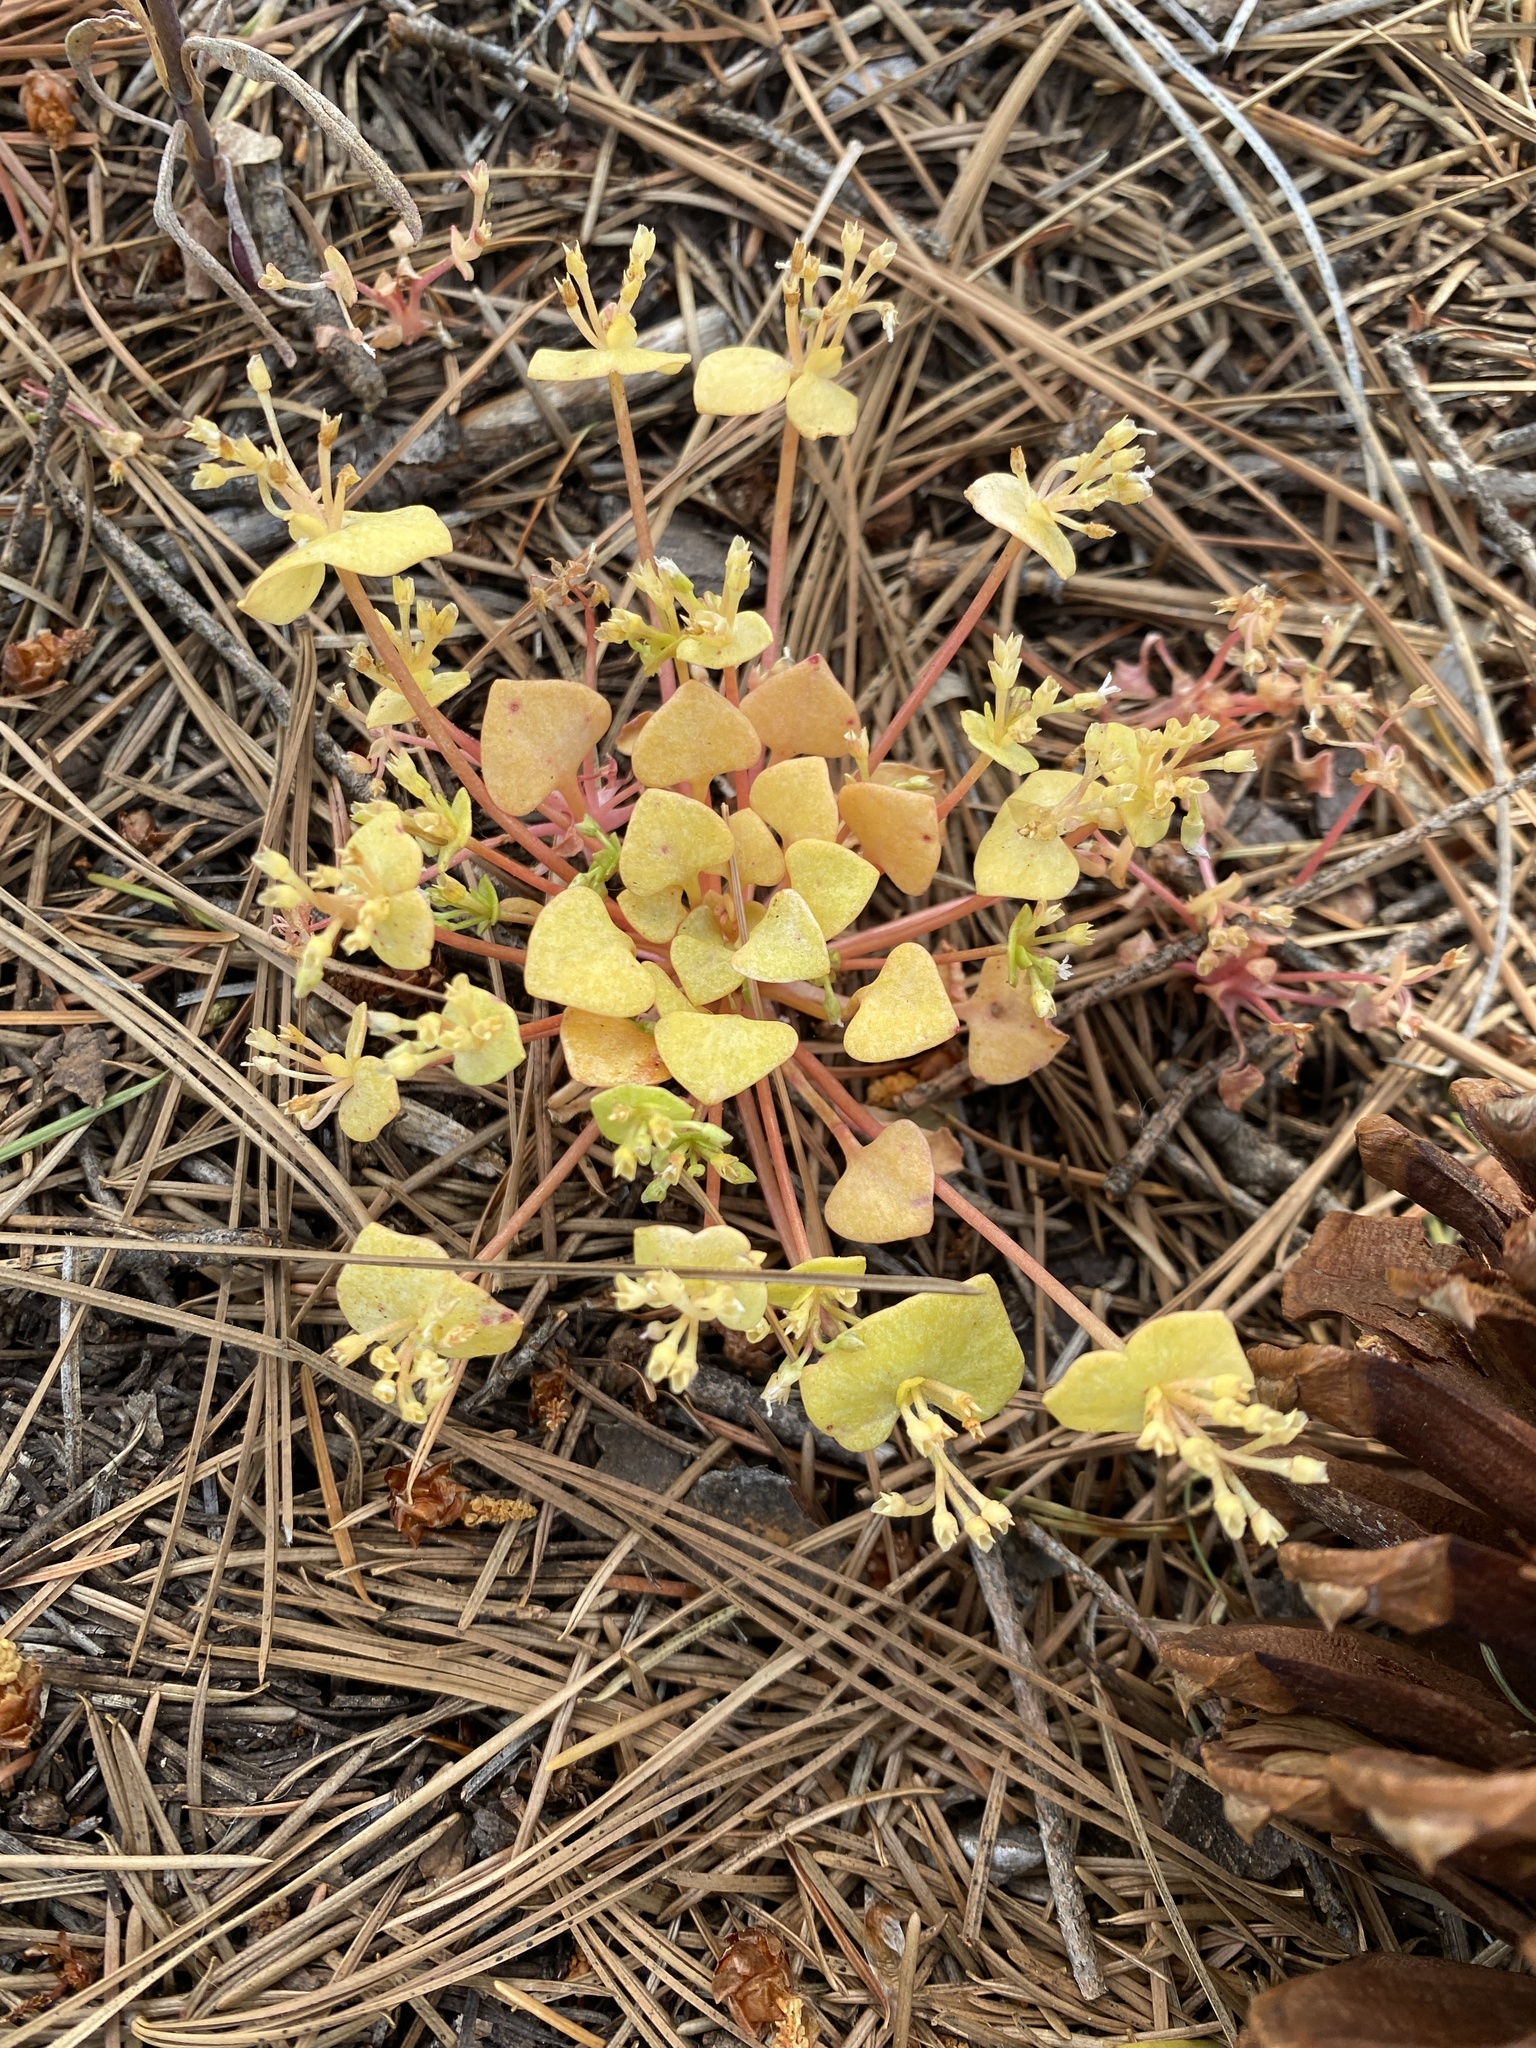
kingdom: Plantae
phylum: Tracheophyta
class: Magnoliopsida
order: Caryophyllales
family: Montiaceae
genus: Claytonia
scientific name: Claytonia rubra
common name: Erubescent miner's-lettuce
